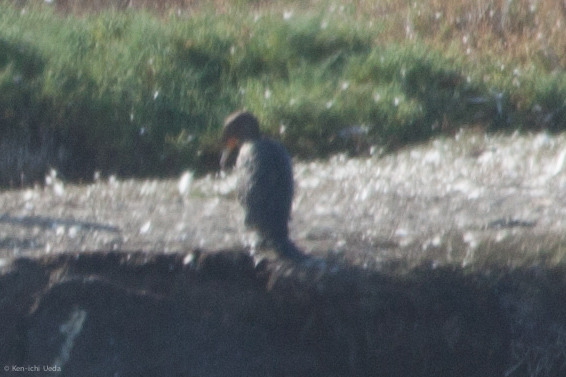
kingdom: Animalia
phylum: Chordata
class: Aves
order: Suliformes
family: Phalacrocoracidae
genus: Phalacrocorax
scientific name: Phalacrocorax auritus
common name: Double-crested cormorant
